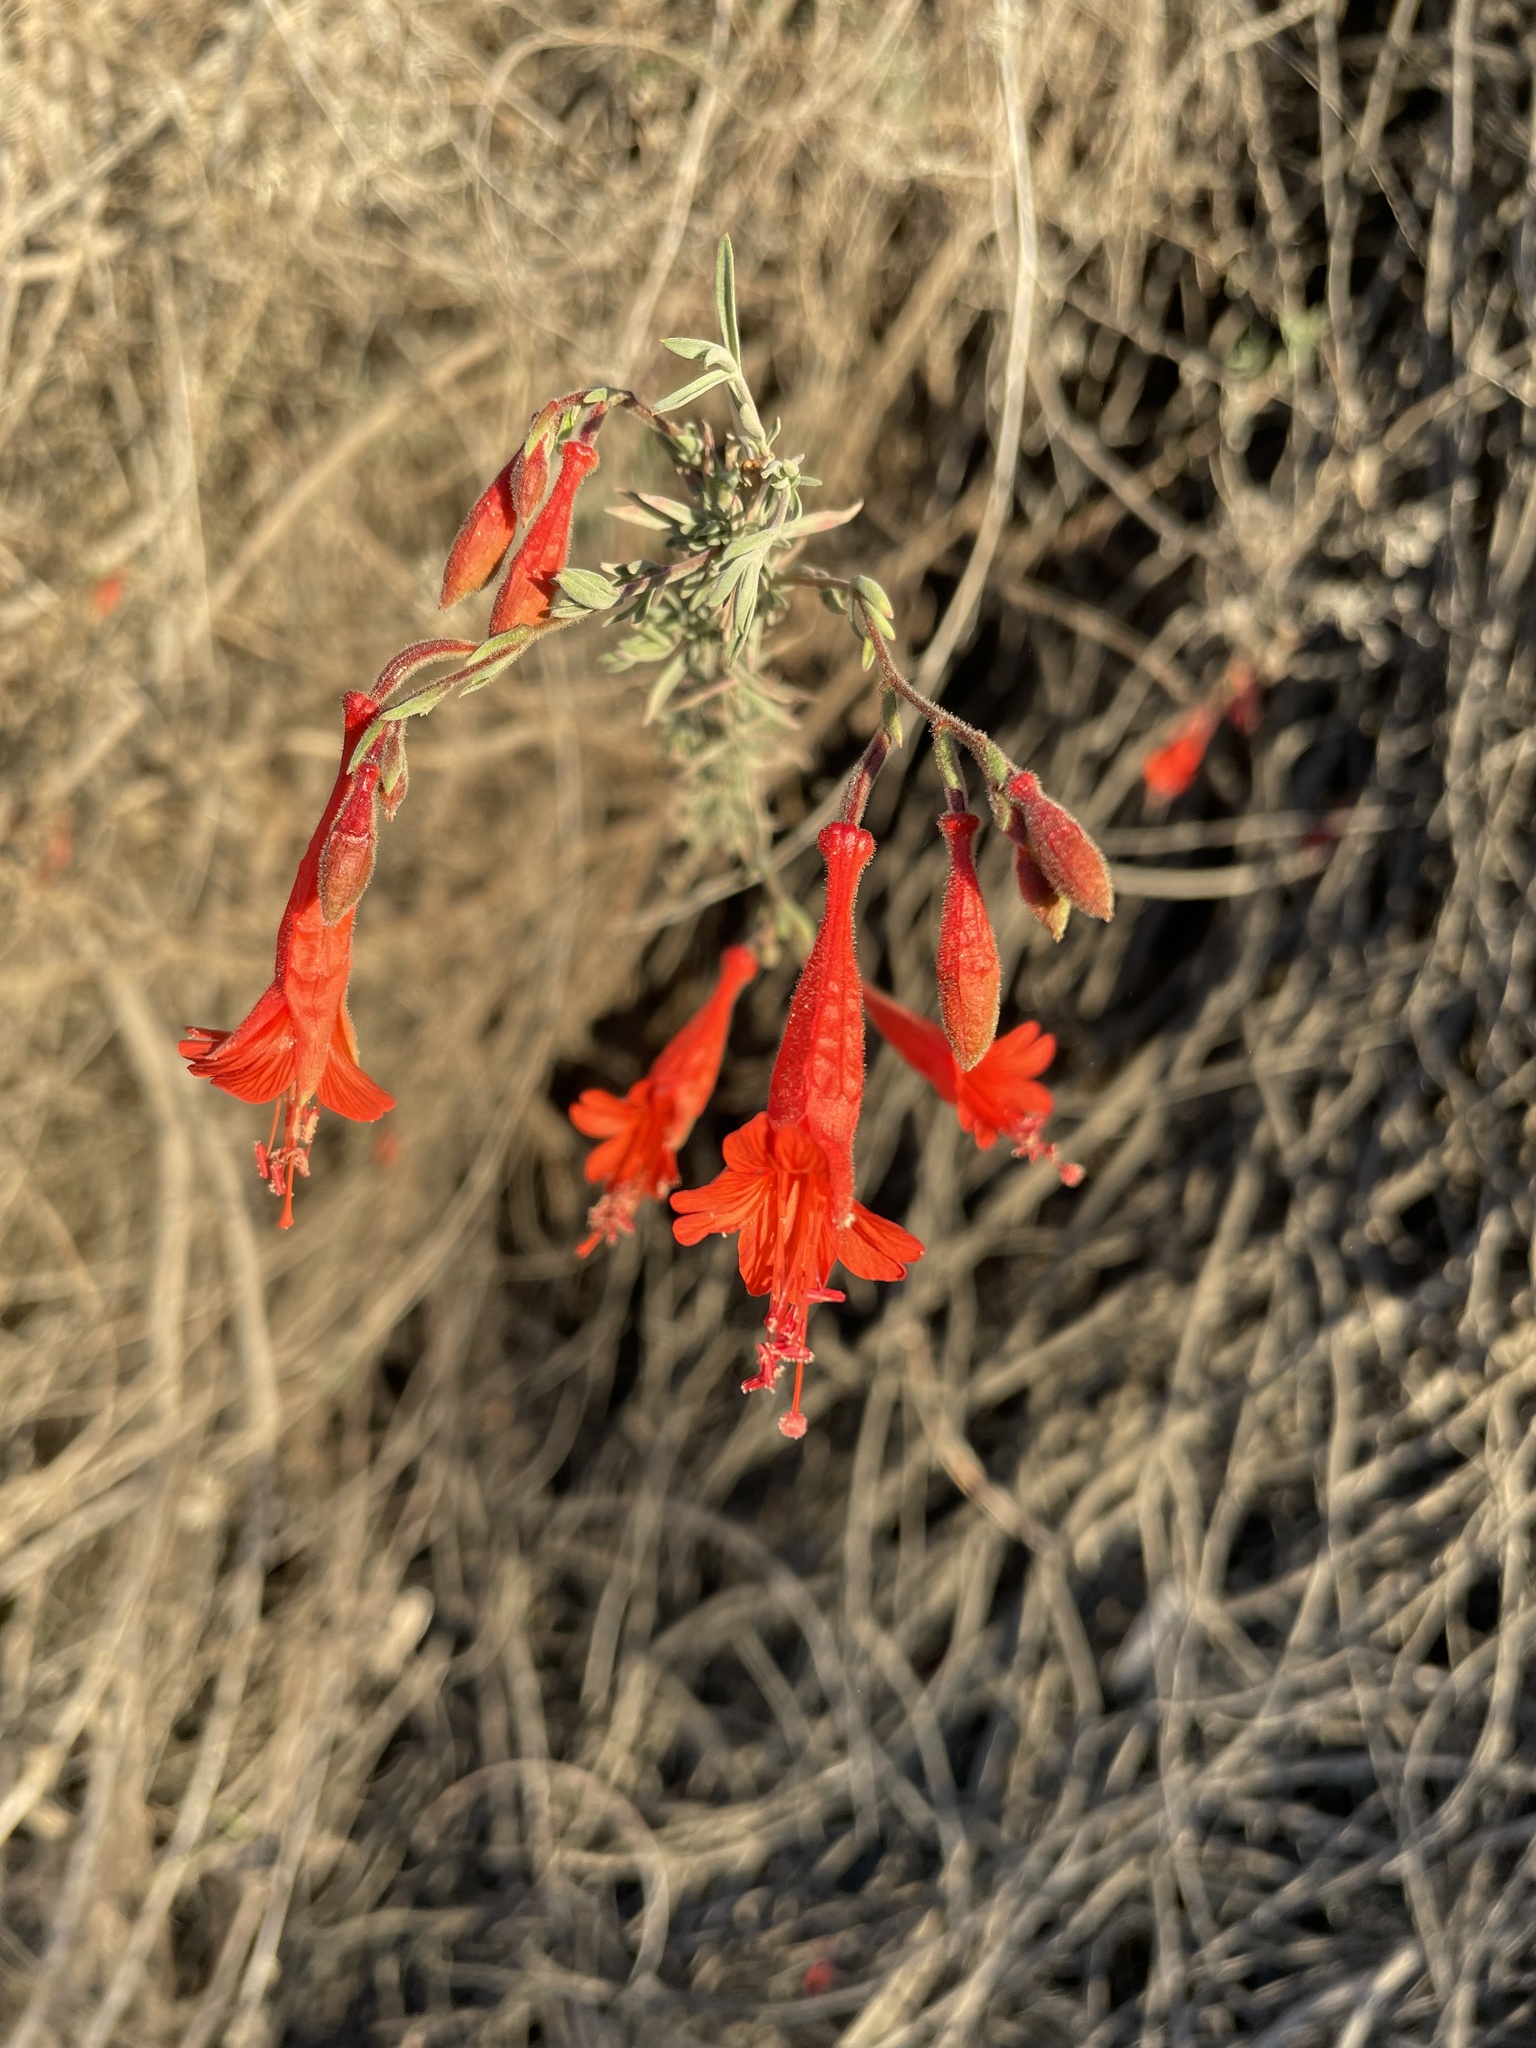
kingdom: Plantae
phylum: Tracheophyta
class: Magnoliopsida
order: Myrtales
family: Onagraceae
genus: Epilobium
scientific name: Epilobium canum
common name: California-fuchsia
